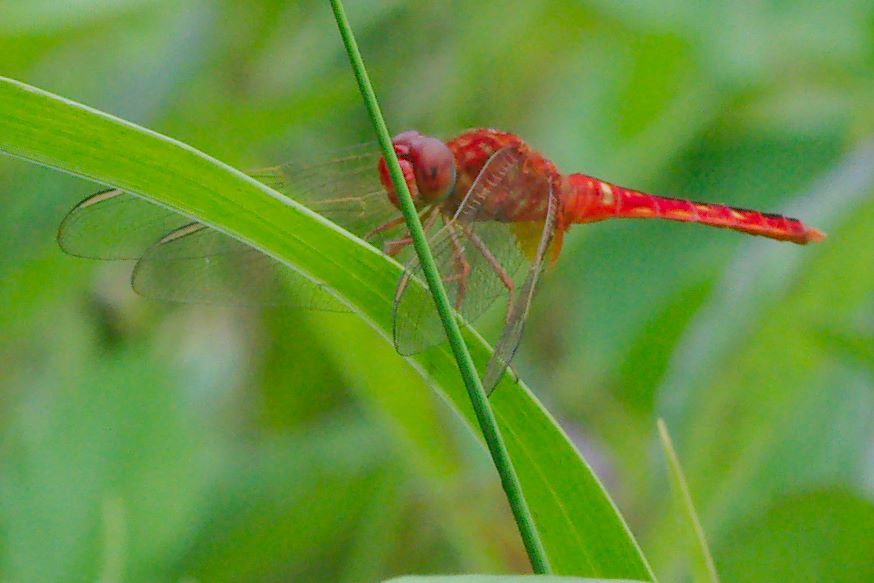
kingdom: Animalia
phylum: Arthropoda
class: Insecta
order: Odonata
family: Libellulidae
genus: Crocothemis
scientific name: Crocothemis servilia
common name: Scarlet skimmer
